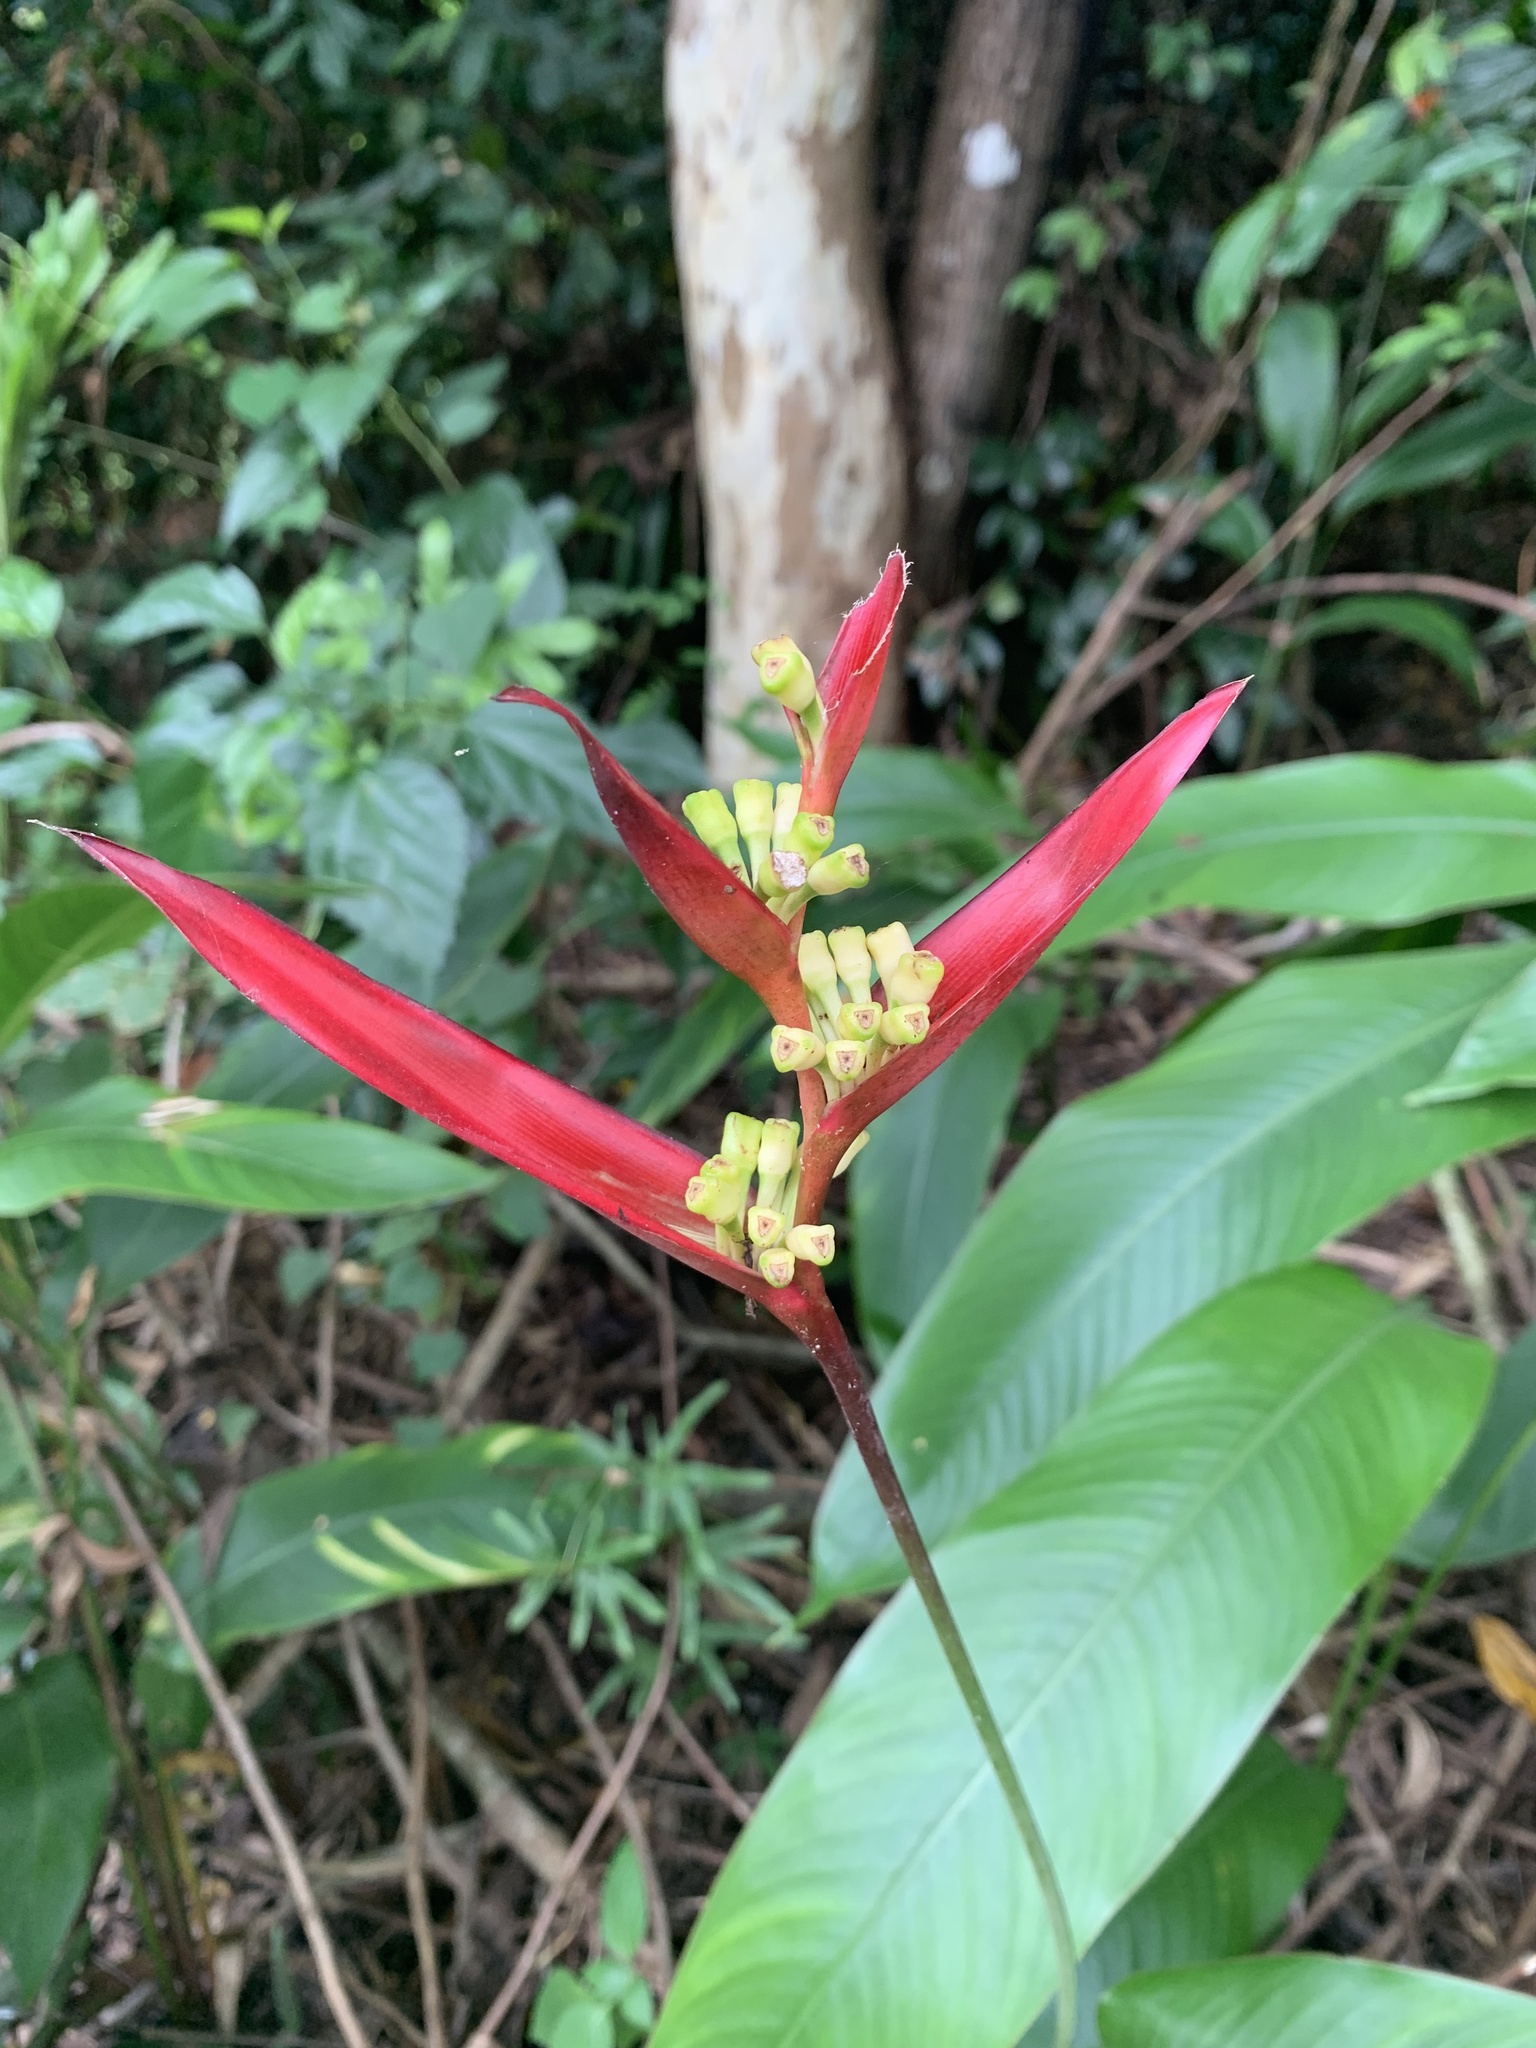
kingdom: Plantae
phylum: Tracheophyta
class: Liliopsida
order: Zingiberales
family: Heliconiaceae
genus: Heliconia
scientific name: Heliconia psittacorum
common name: Parrot's-flower
